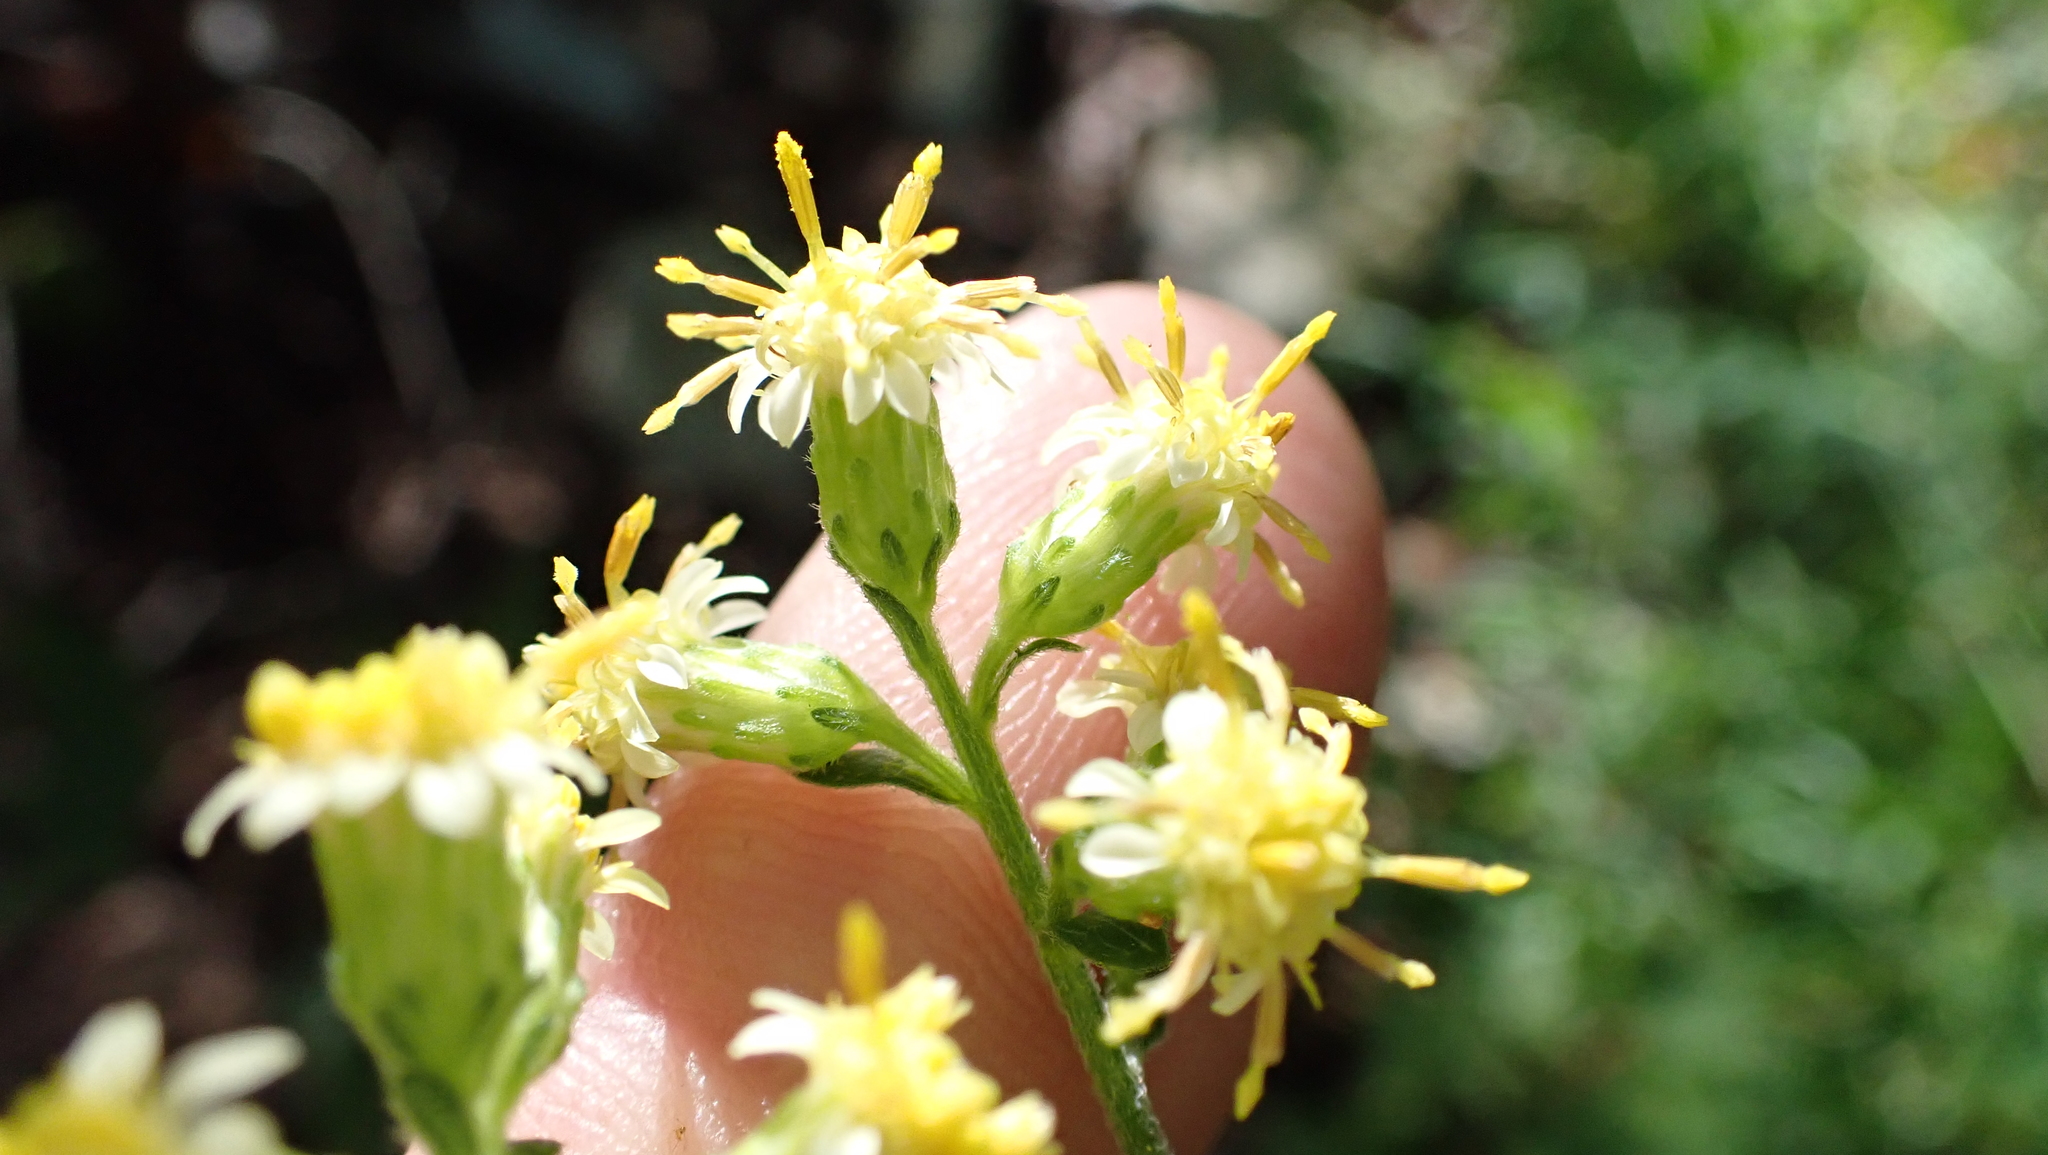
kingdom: Plantae
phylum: Tracheophyta
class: Magnoliopsida
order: Asterales
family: Asteraceae
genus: Solidago
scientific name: Solidago bicolor
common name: Silverrod
